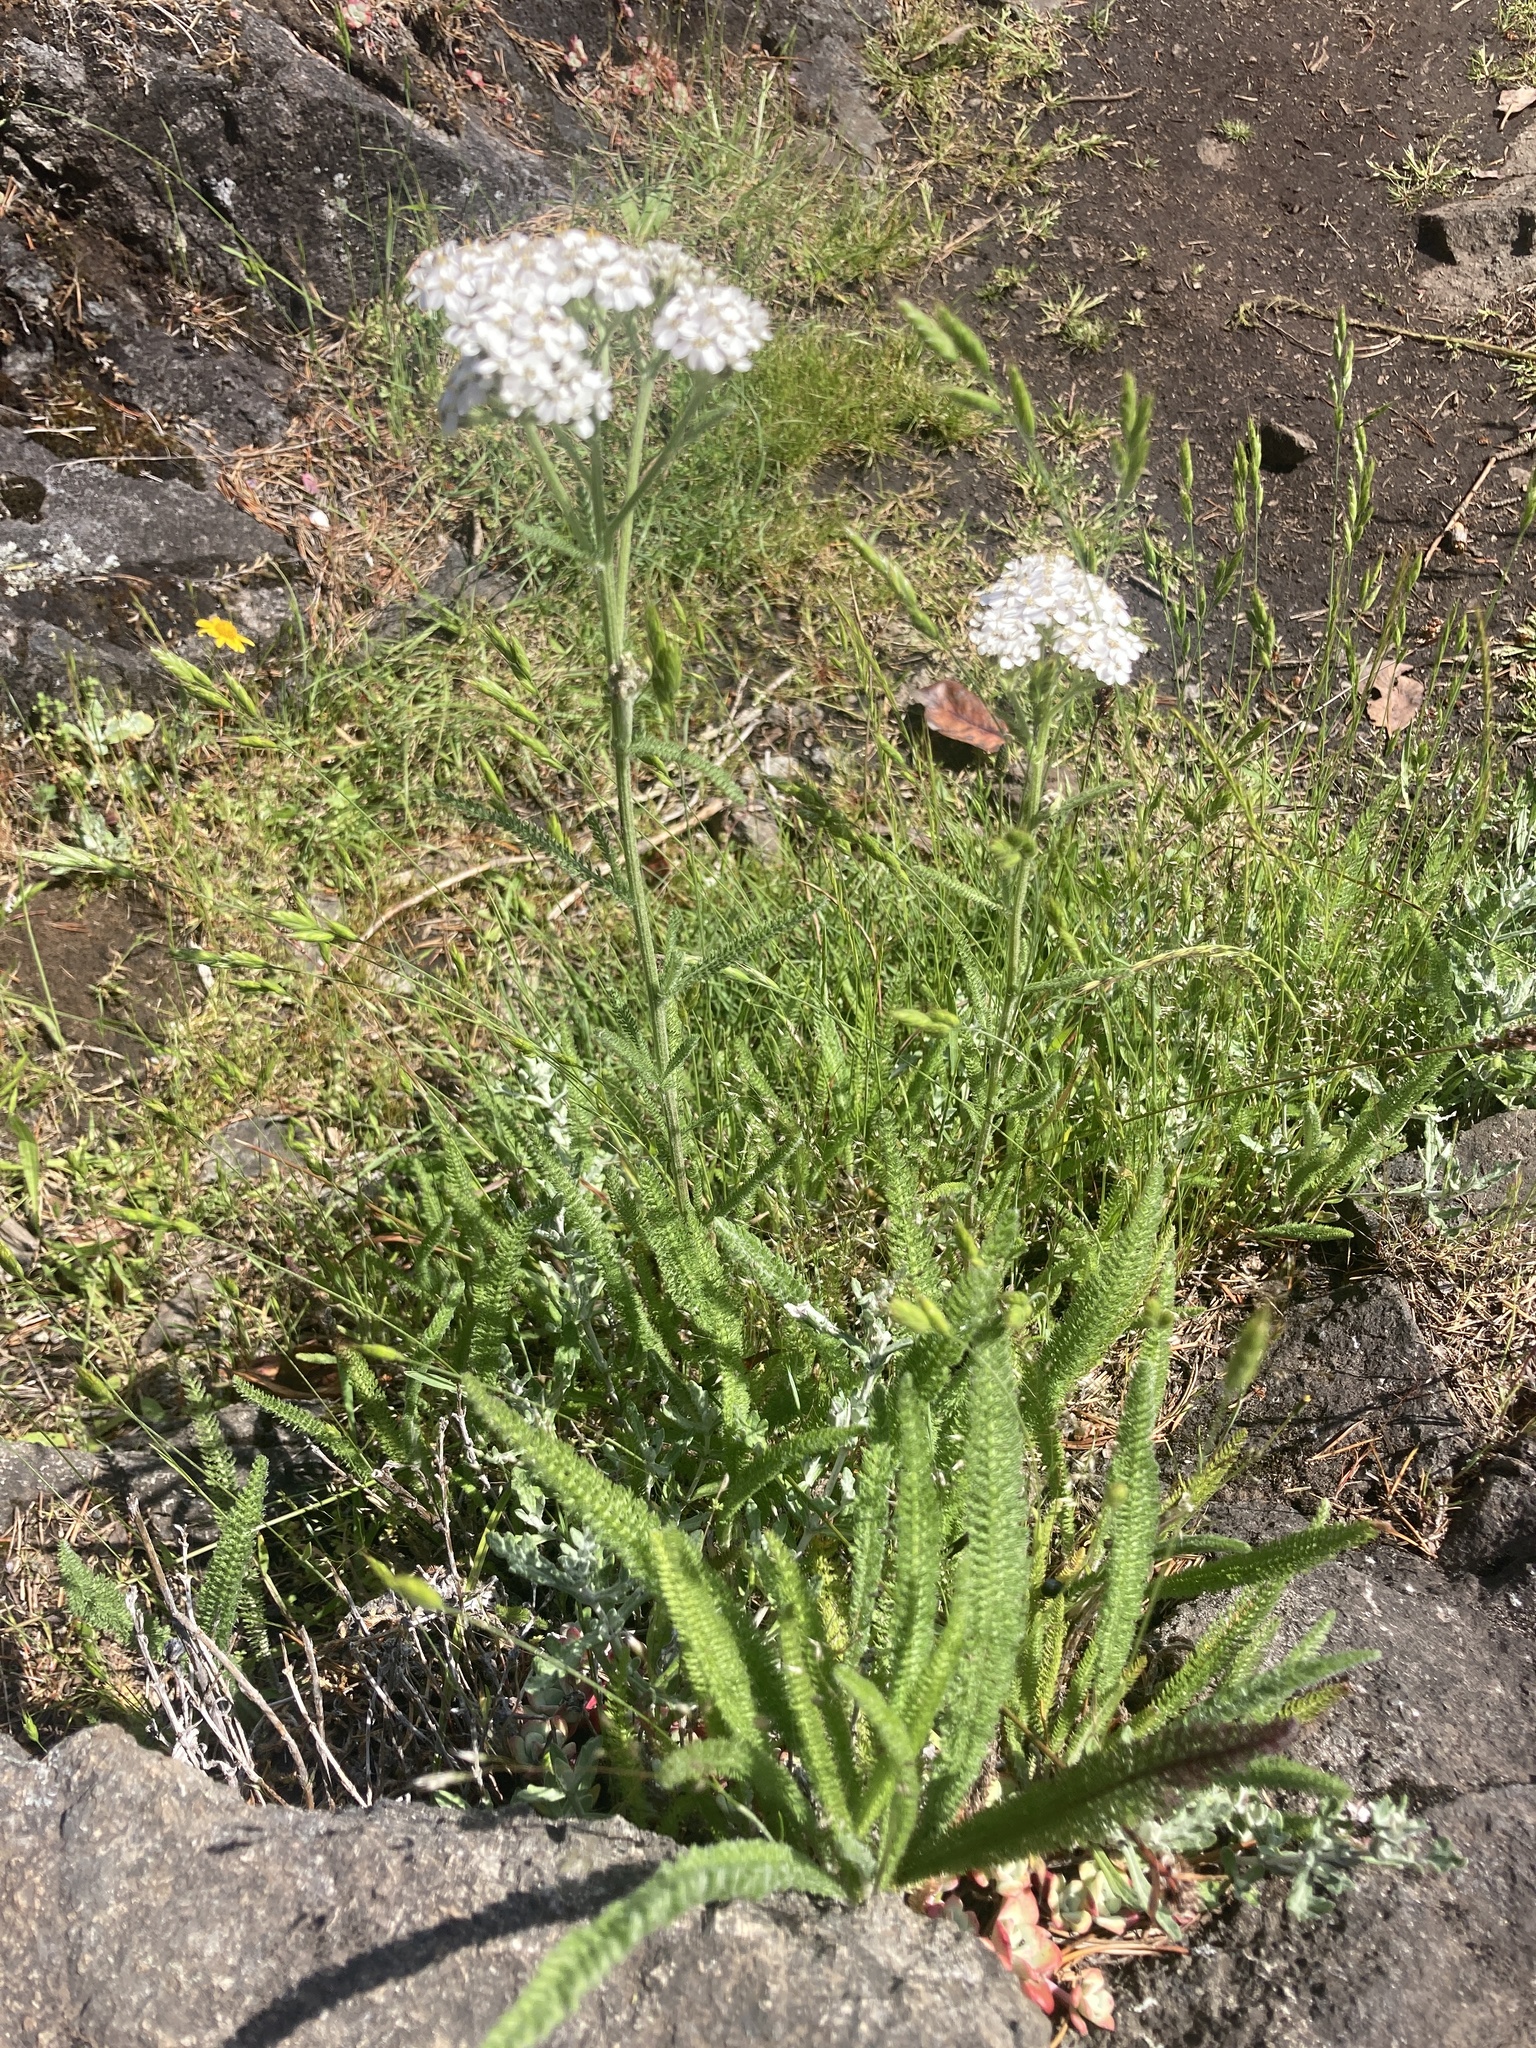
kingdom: Plantae
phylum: Tracheophyta
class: Magnoliopsida
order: Asterales
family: Asteraceae
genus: Achillea
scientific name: Achillea millefolium
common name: Yarrow
